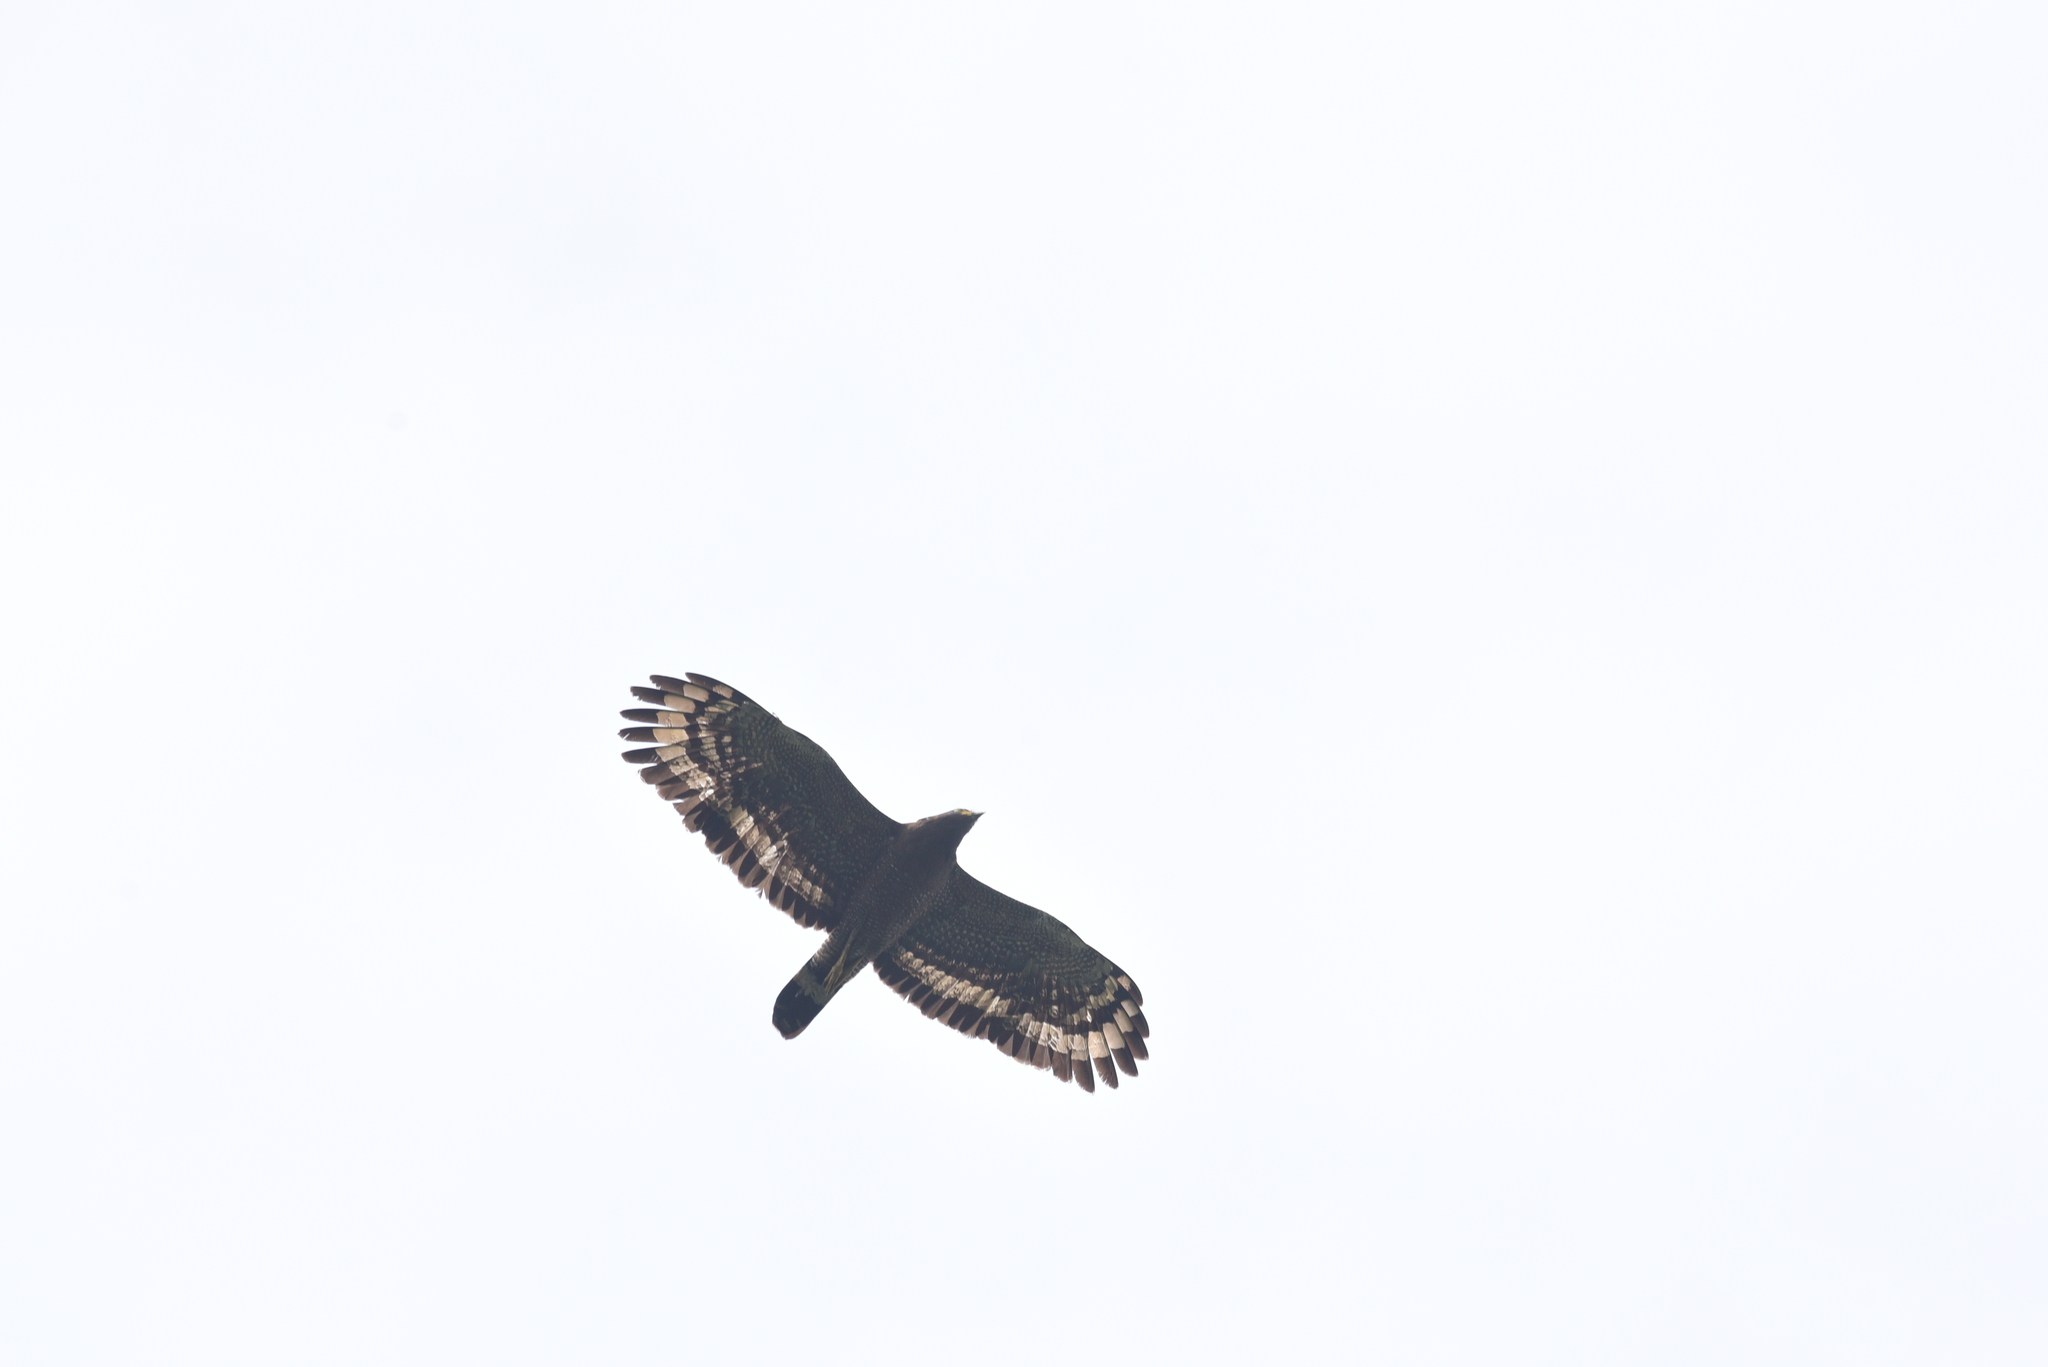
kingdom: Animalia
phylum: Chordata
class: Aves
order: Accipitriformes
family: Accipitridae
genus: Spilornis
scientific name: Spilornis cheela
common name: Crested serpent eagle
